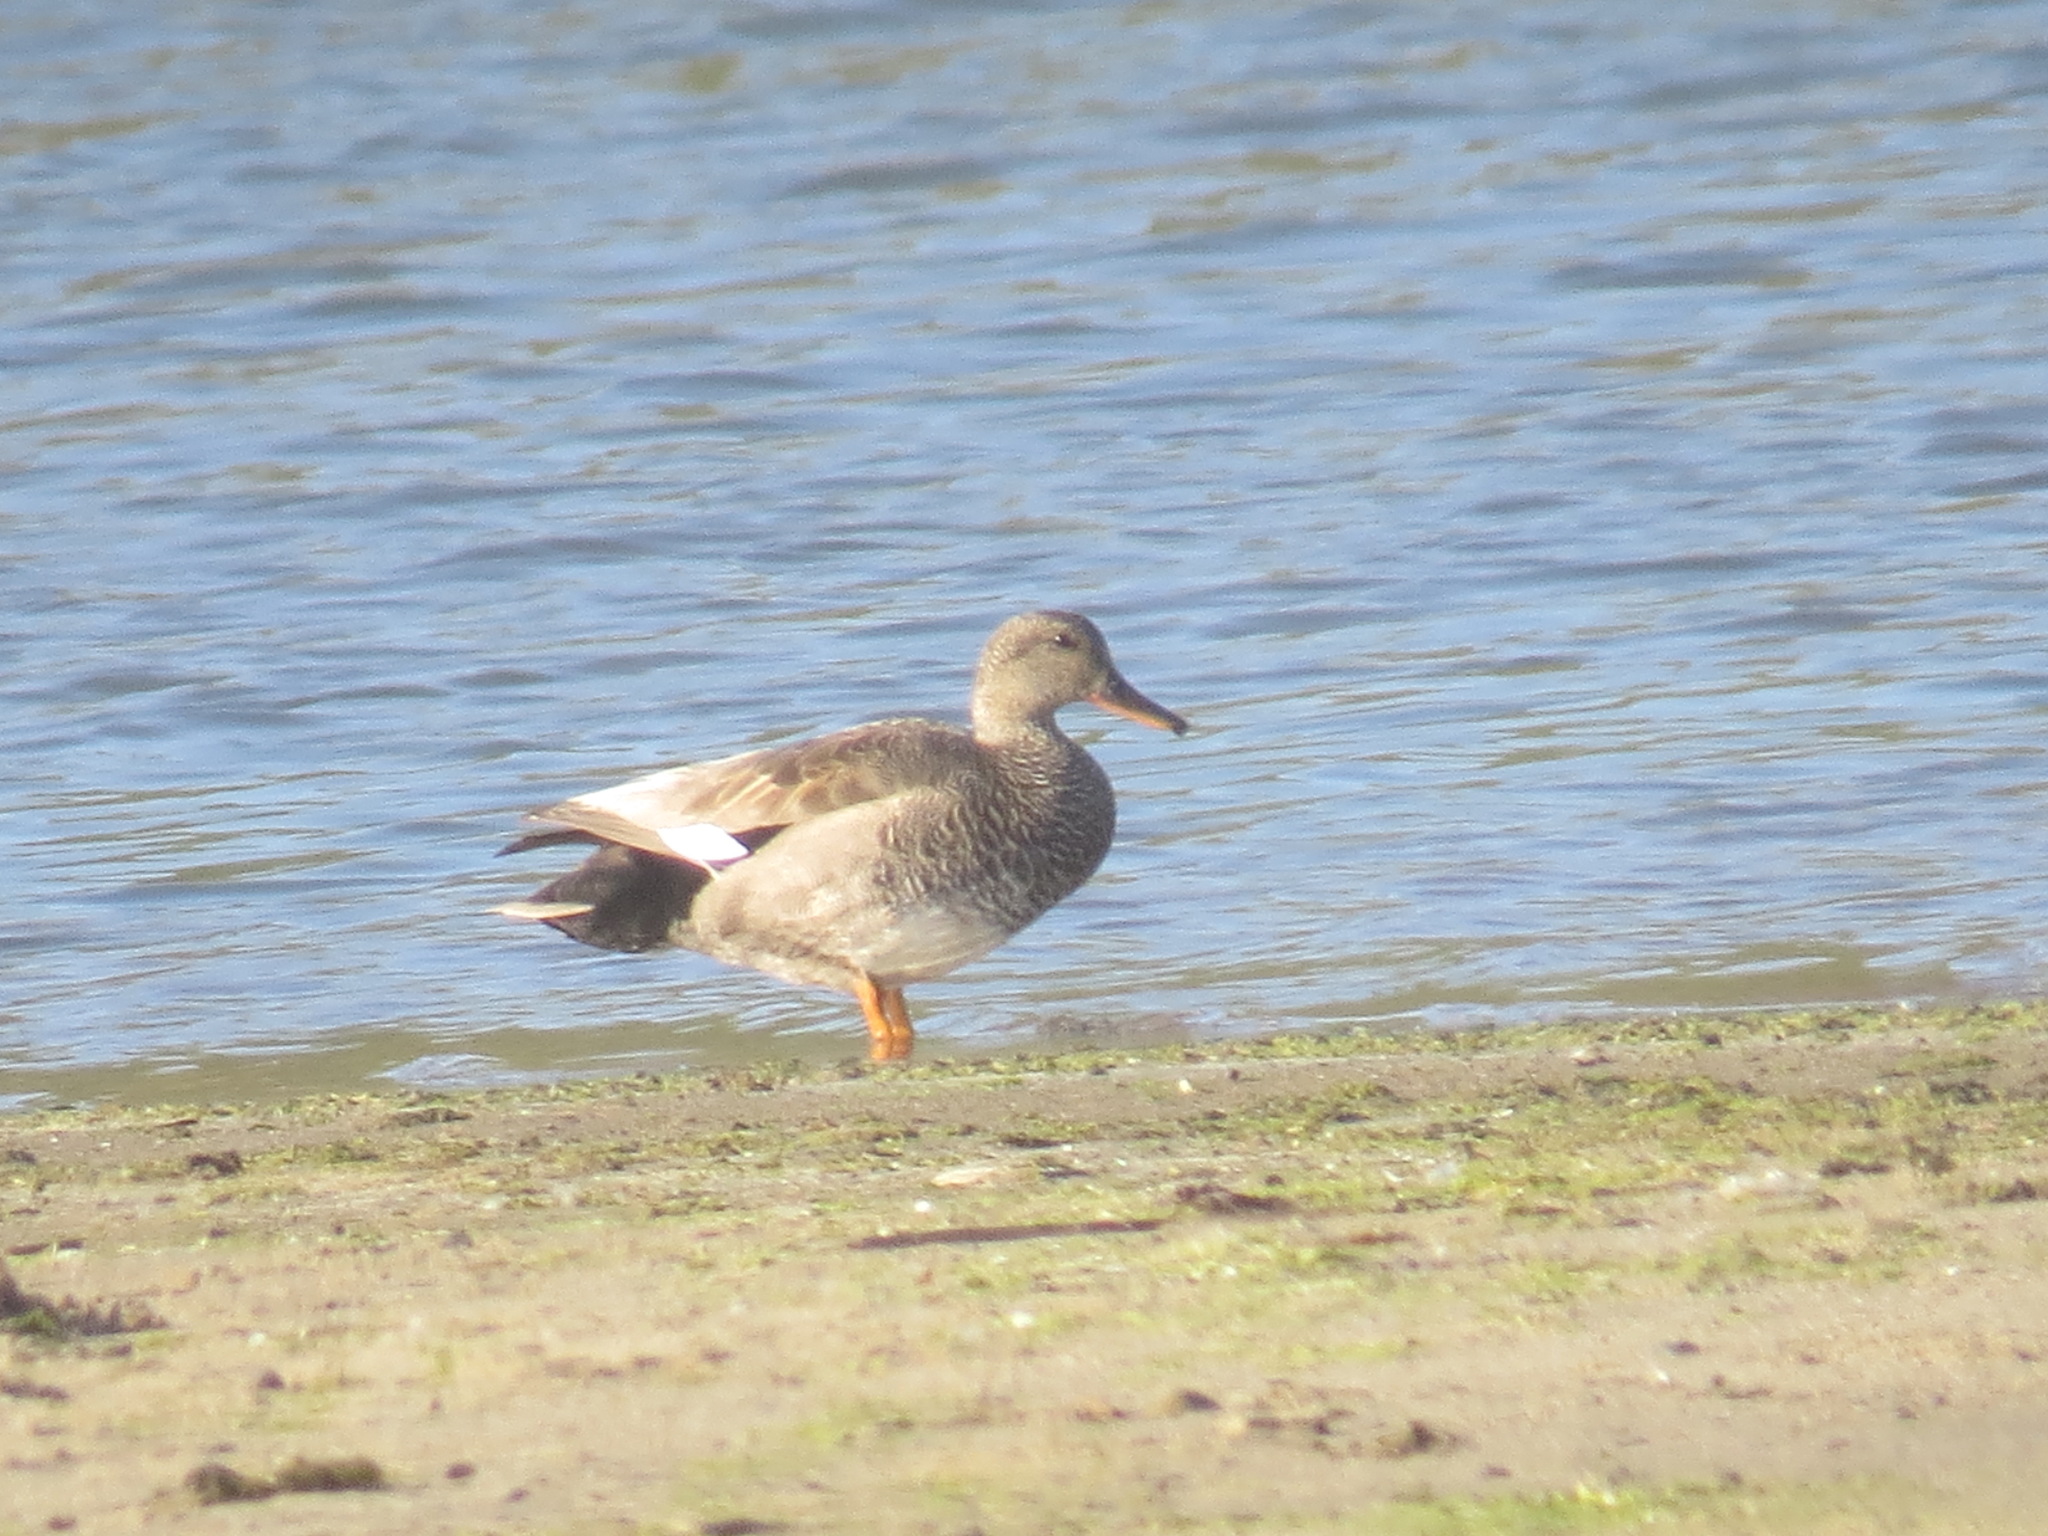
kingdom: Animalia
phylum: Chordata
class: Aves
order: Anseriformes
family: Anatidae
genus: Mareca
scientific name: Mareca strepera
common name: Gadwall
